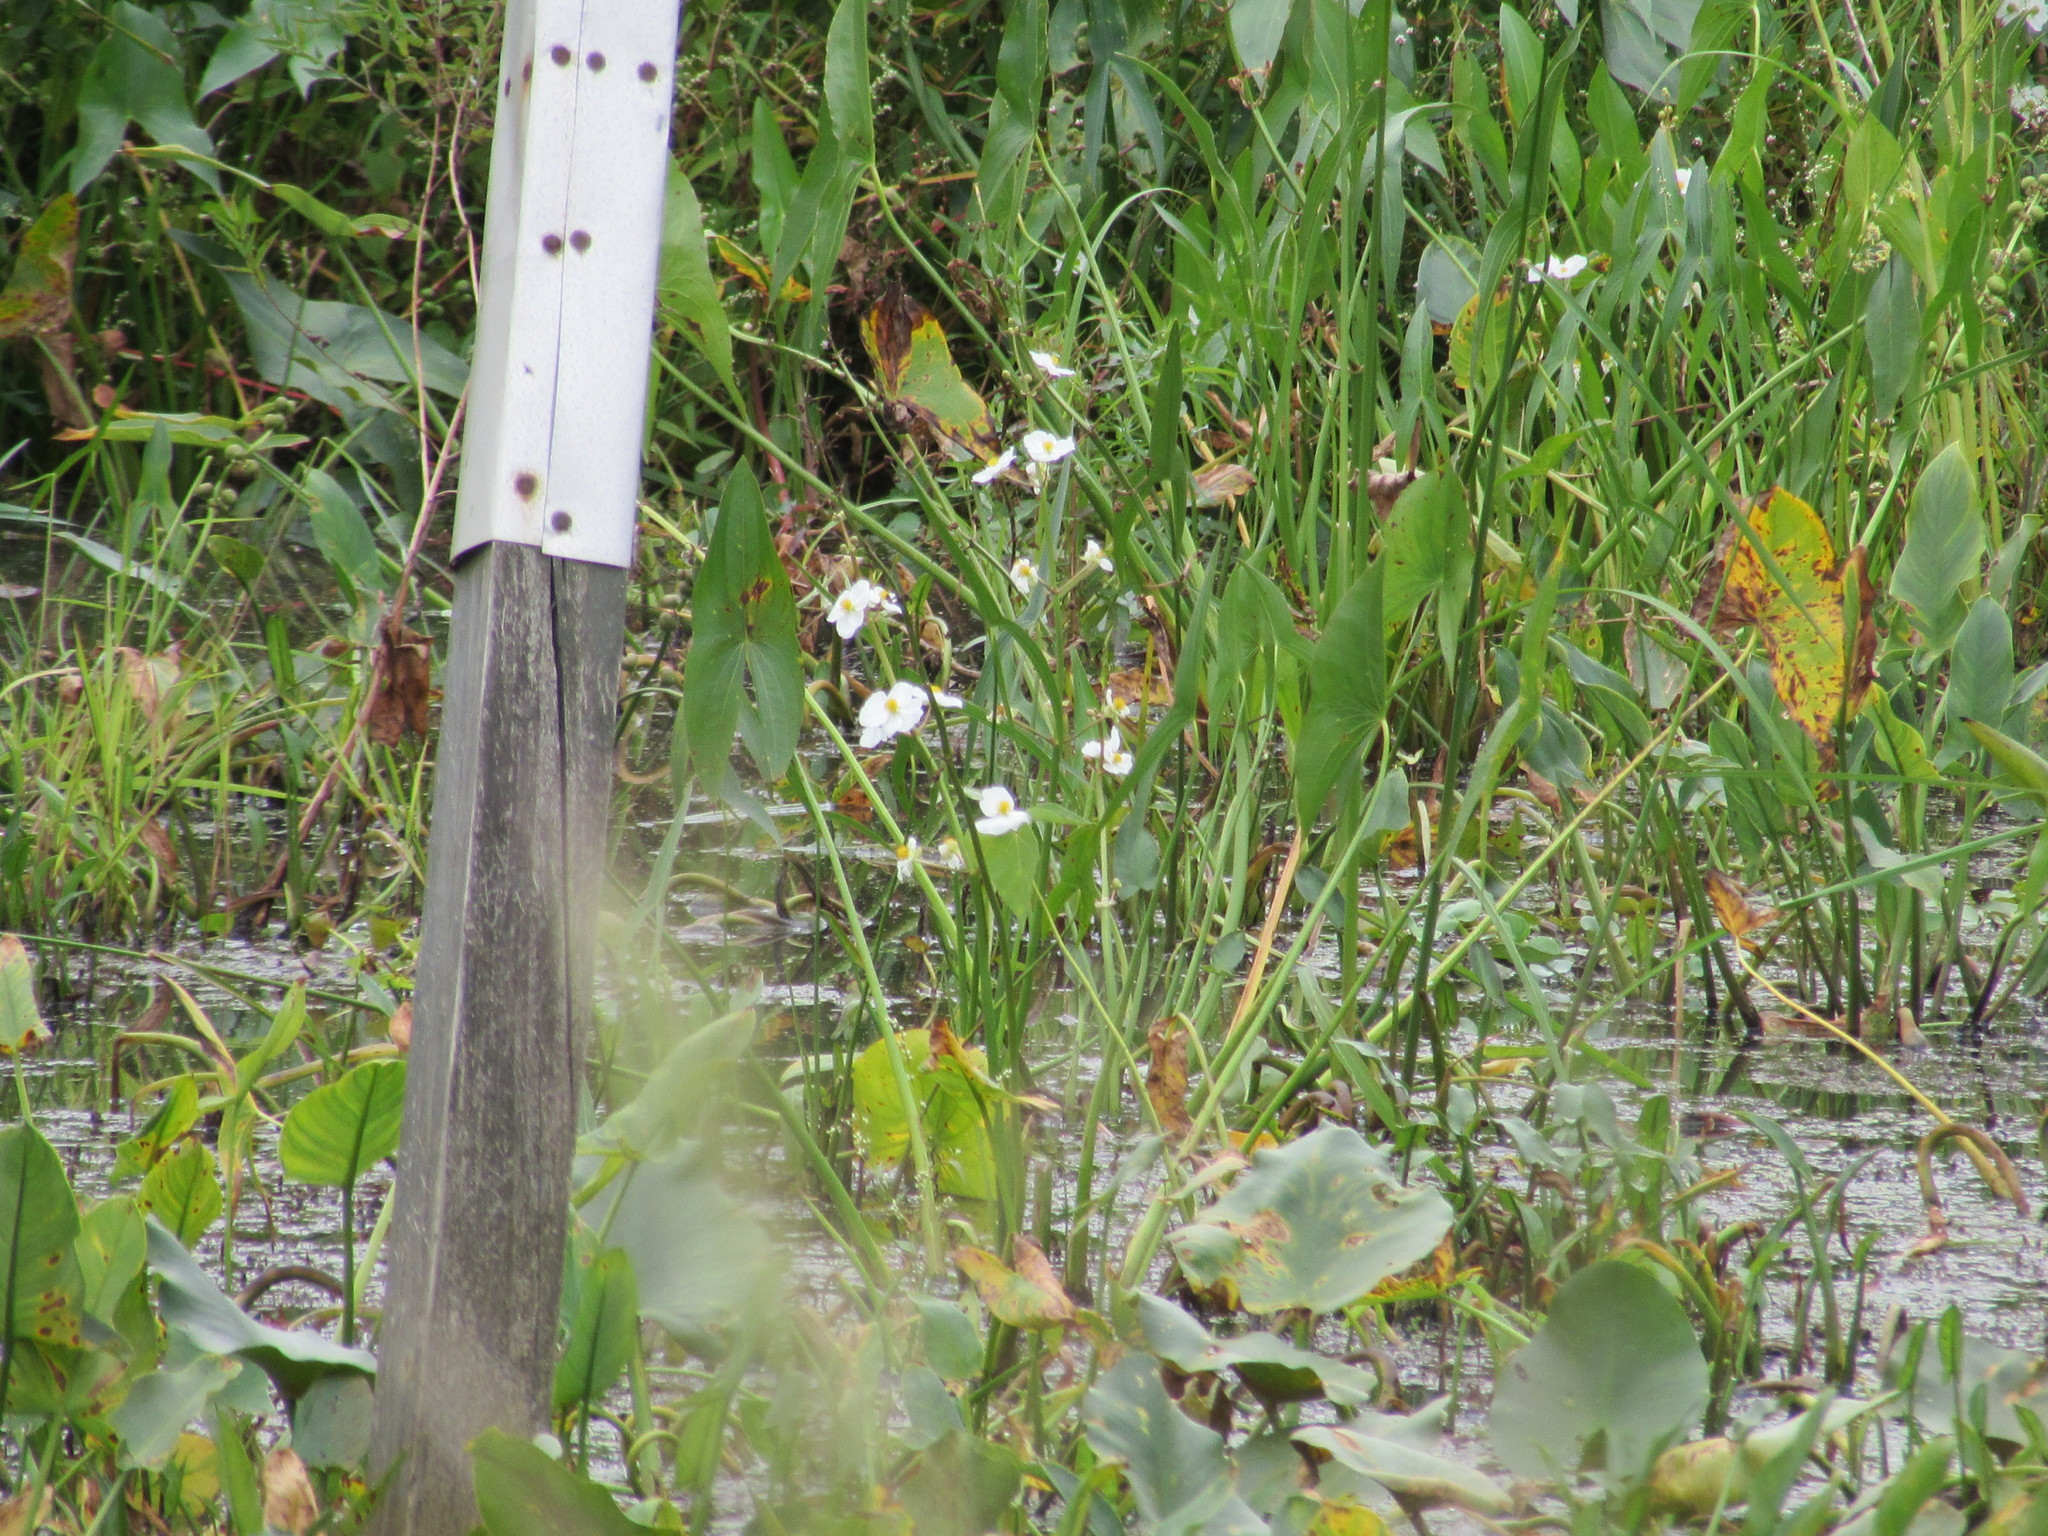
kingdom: Plantae
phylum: Tracheophyta
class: Liliopsida
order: Alismatales
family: Alismataceae
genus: Sagittaria
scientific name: Sagittaria latifolia
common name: Duck-potato
